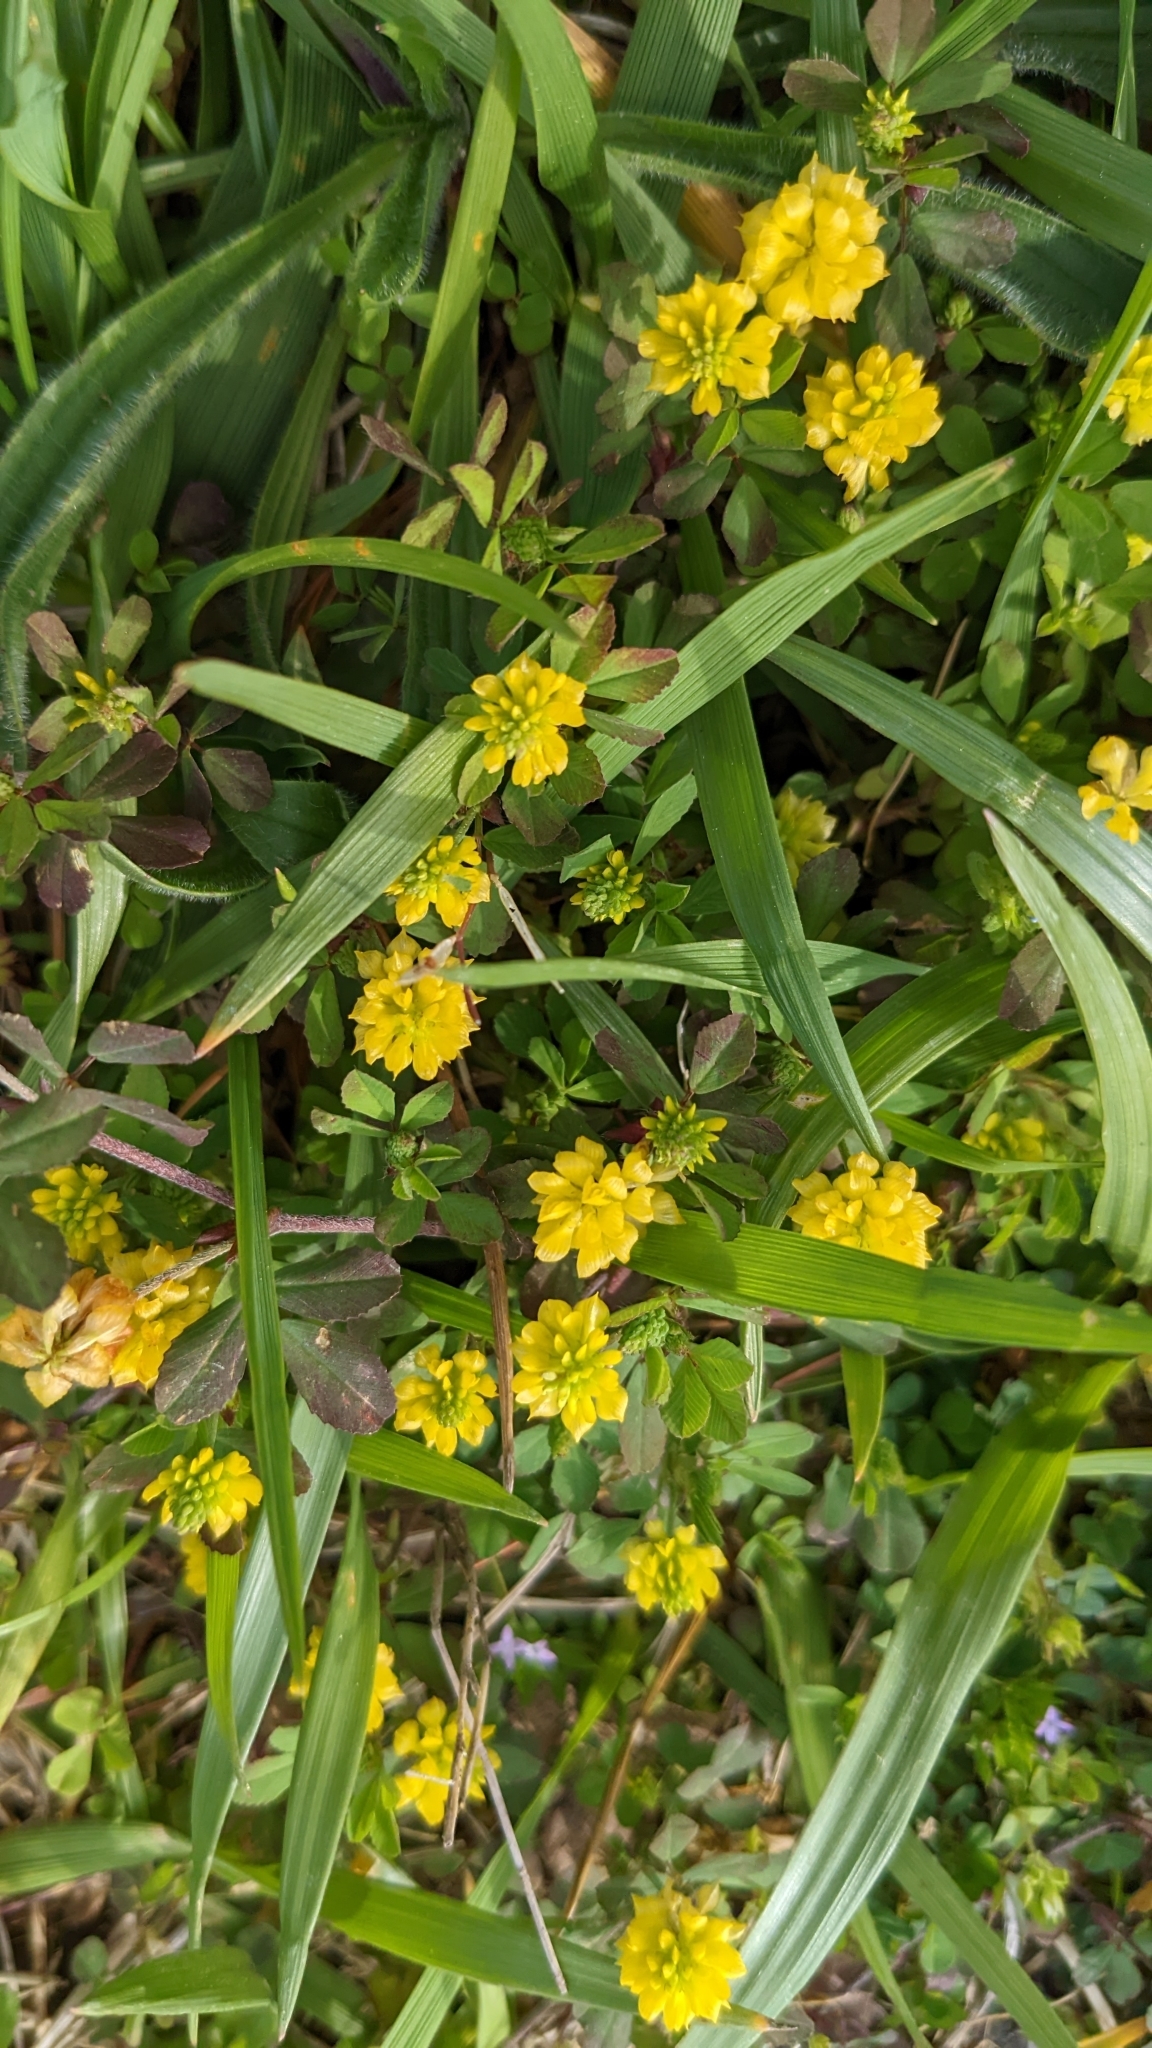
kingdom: Plantae
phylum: Tracheophyta
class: Magnoliopsida
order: Fabales
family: Fabaceae
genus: Trifolium
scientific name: Trifolium campestre
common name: Field clover
